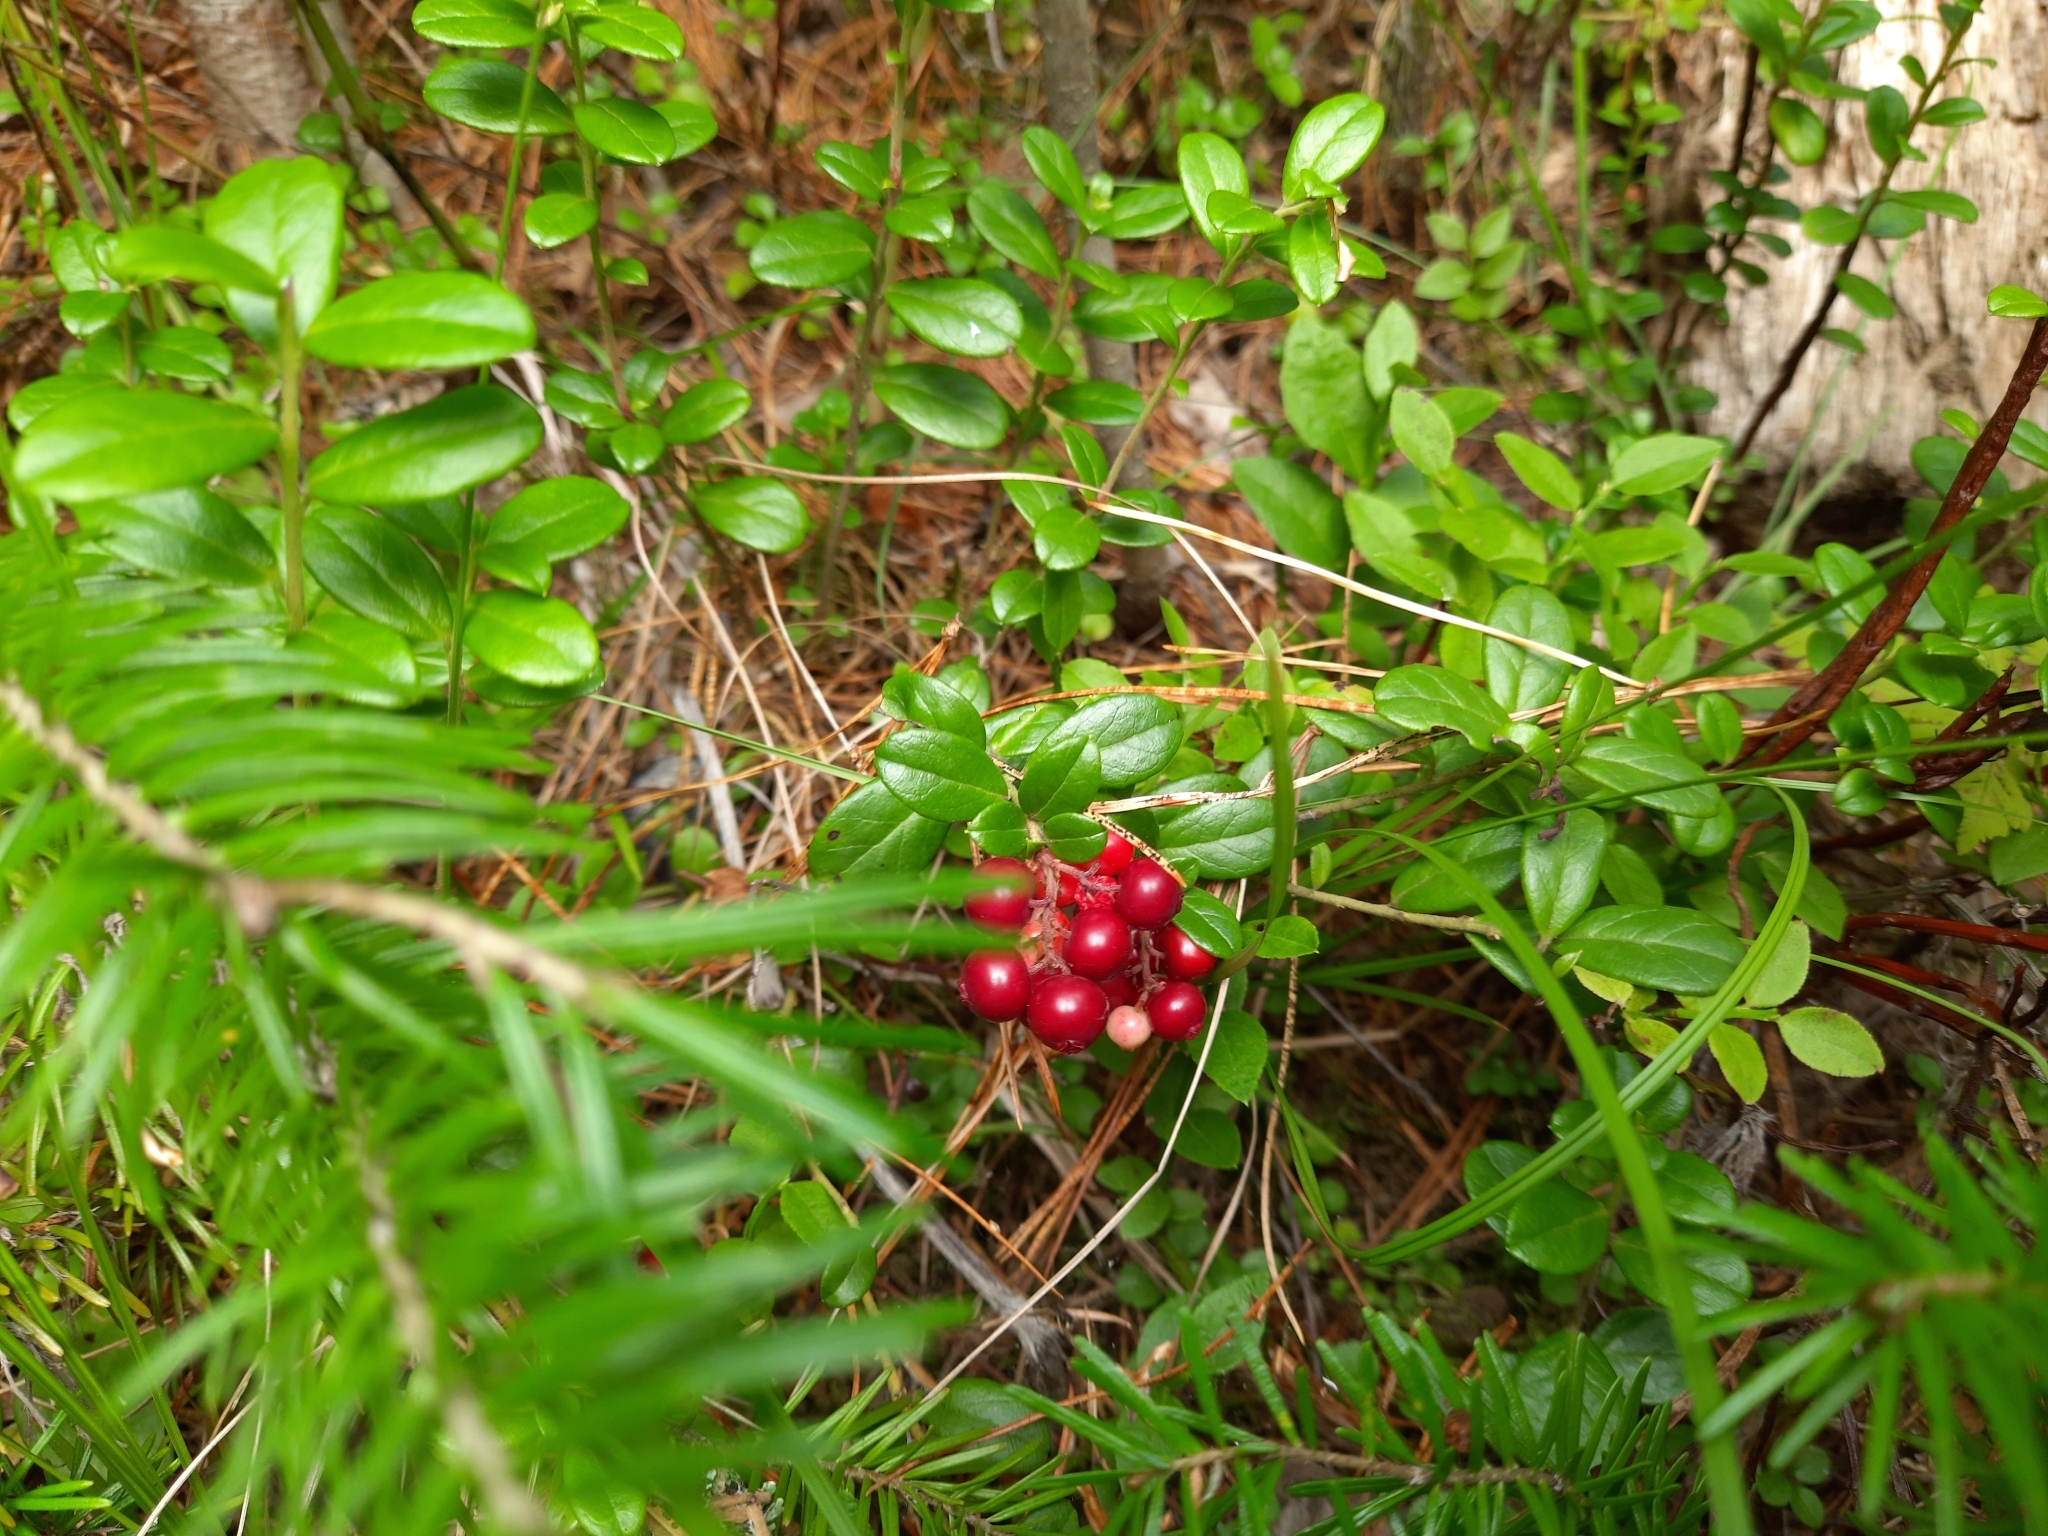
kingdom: Plantae
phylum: Tracheophyta
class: Magnoliopsida
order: Ericales
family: Ericaceae
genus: Vaccinium
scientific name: Vaccinium vitis-idaea
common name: Cowberry
